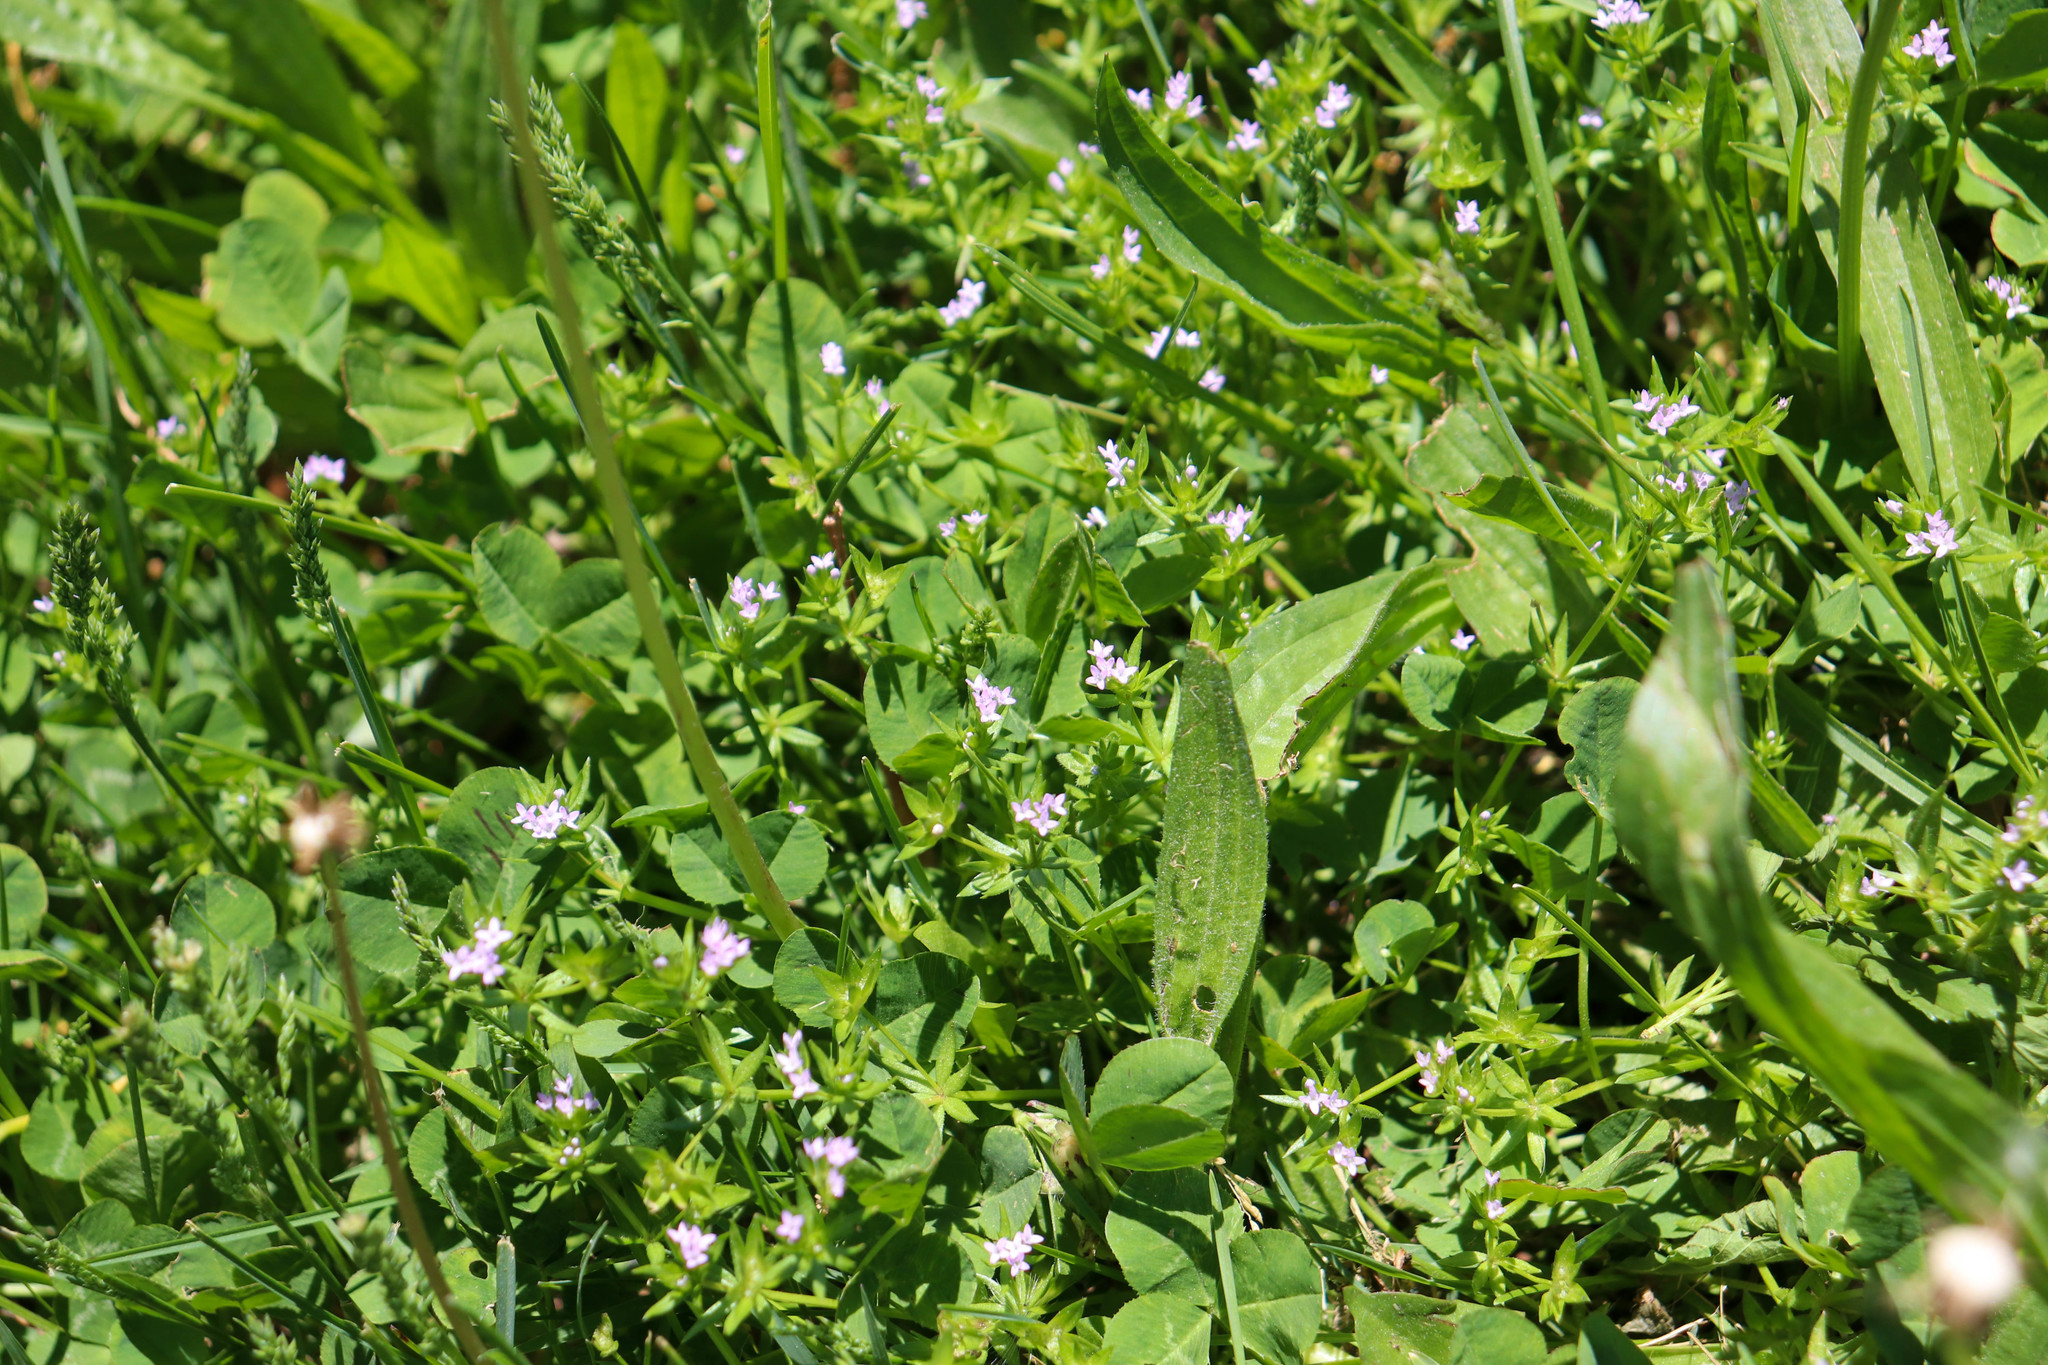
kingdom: Plantae
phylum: Tracheophyta
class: Magnoliopsida
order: Gentianales
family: Rubiaceae
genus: Sherardia
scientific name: Sherardia arvensis
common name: Field madder
